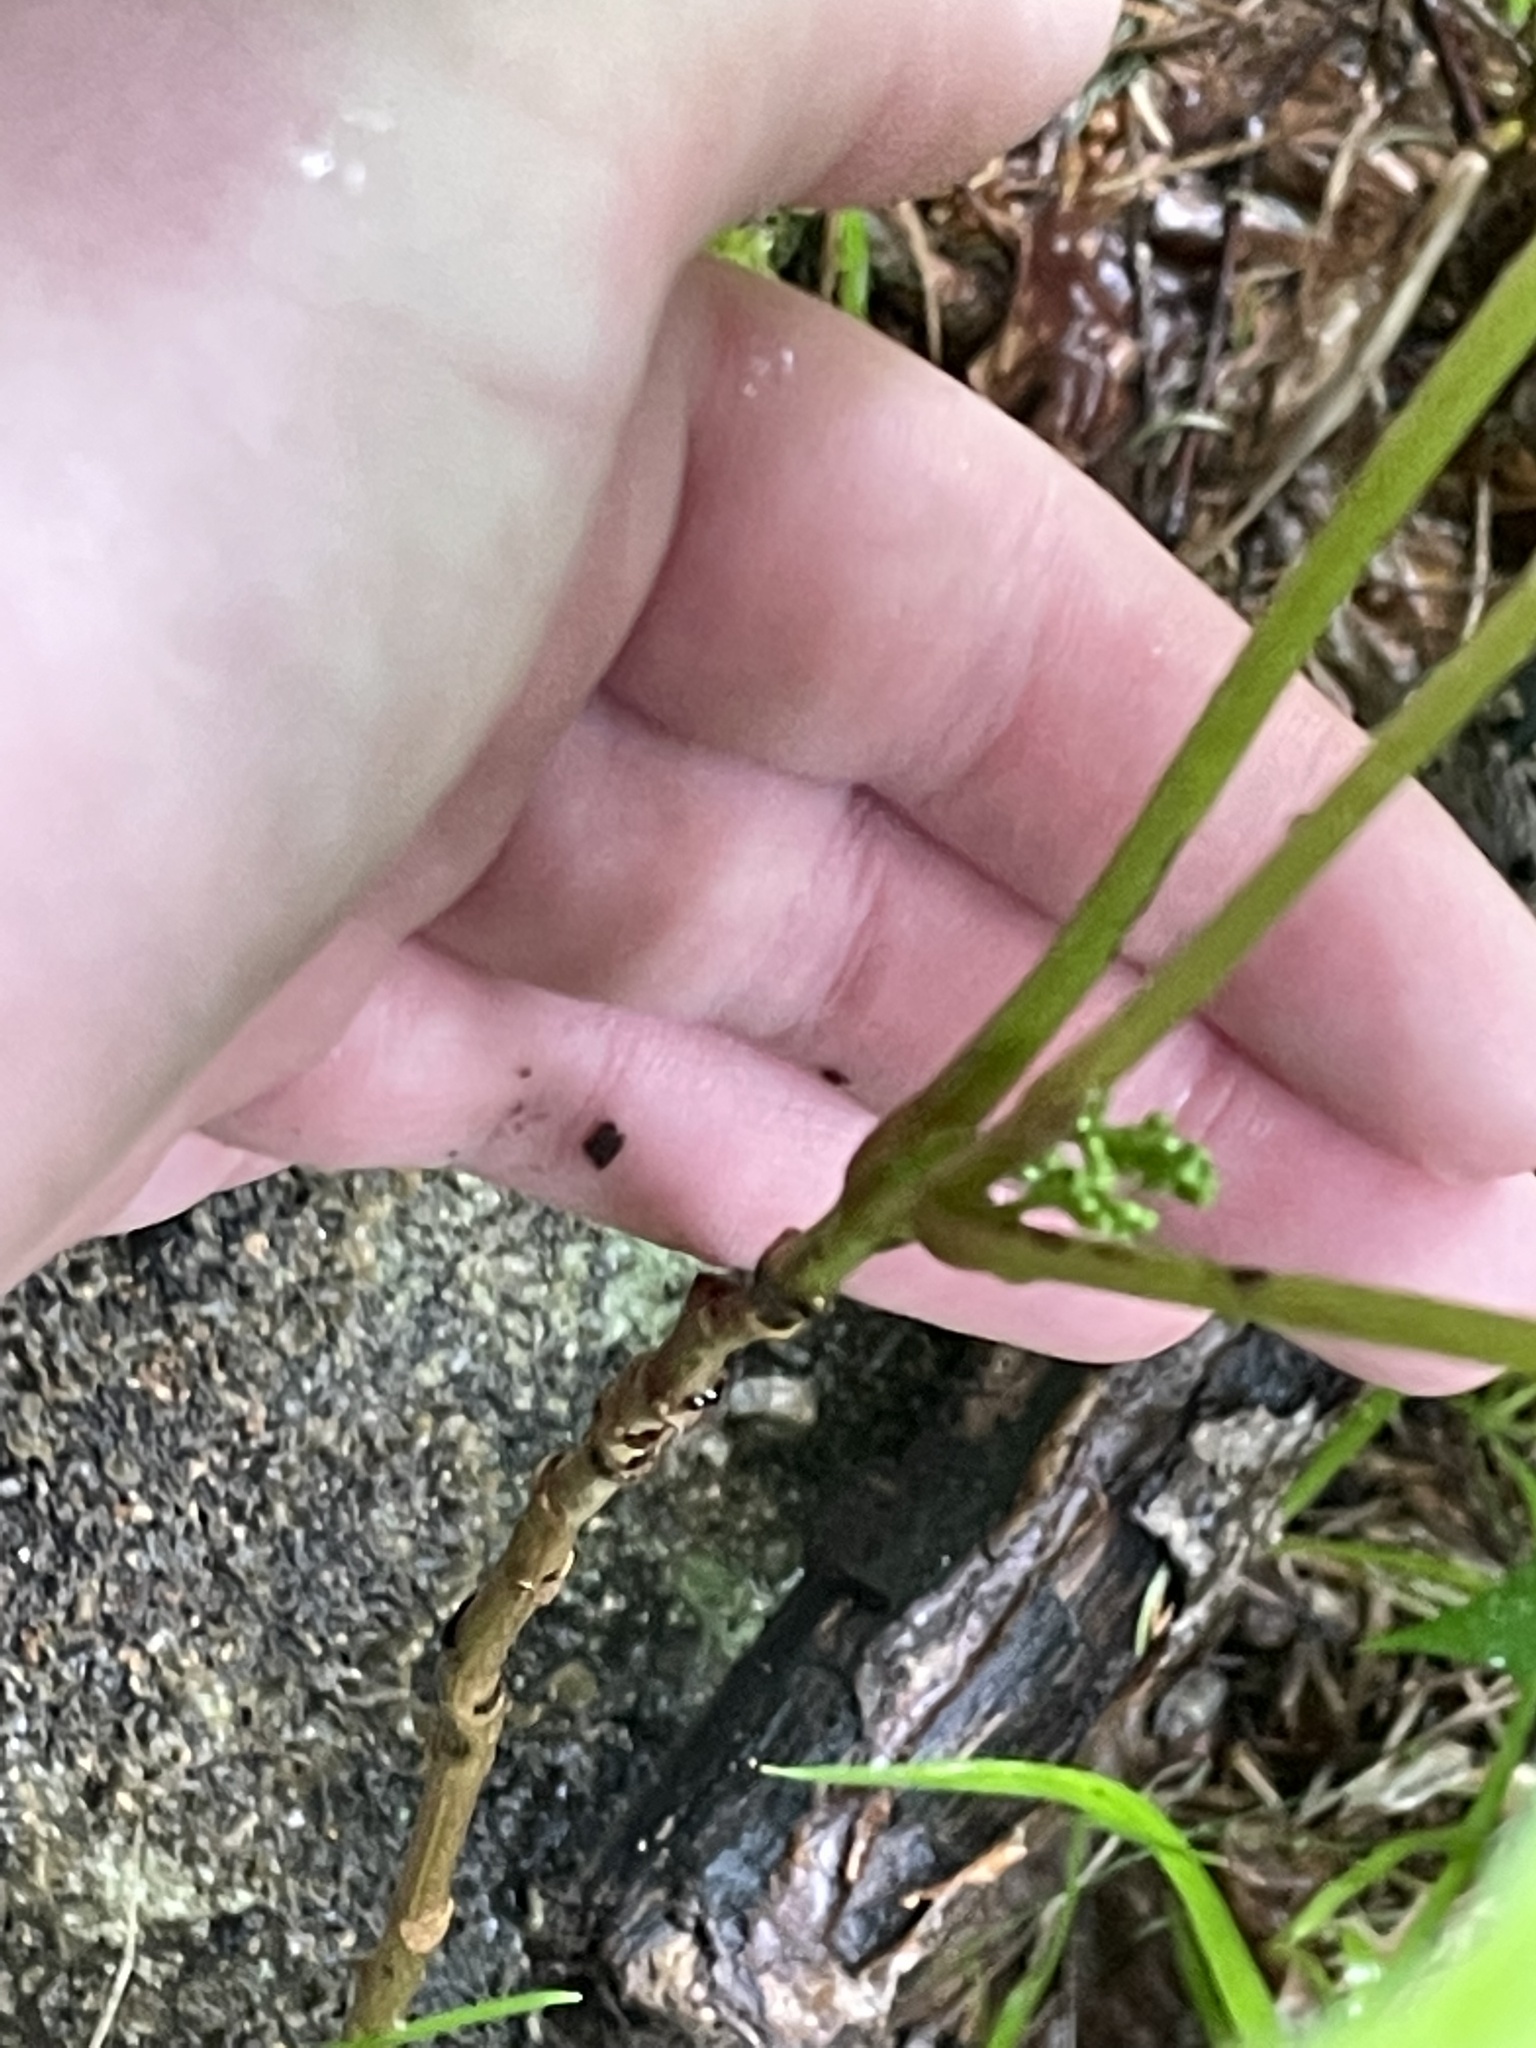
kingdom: Plantae
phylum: Tracheophyta
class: Magnoliopsida
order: Sapindales
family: Anacardiaceae
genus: Toxicodendron
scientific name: Toxicodendron rydbergii
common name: Rydberg's poison-ivy
